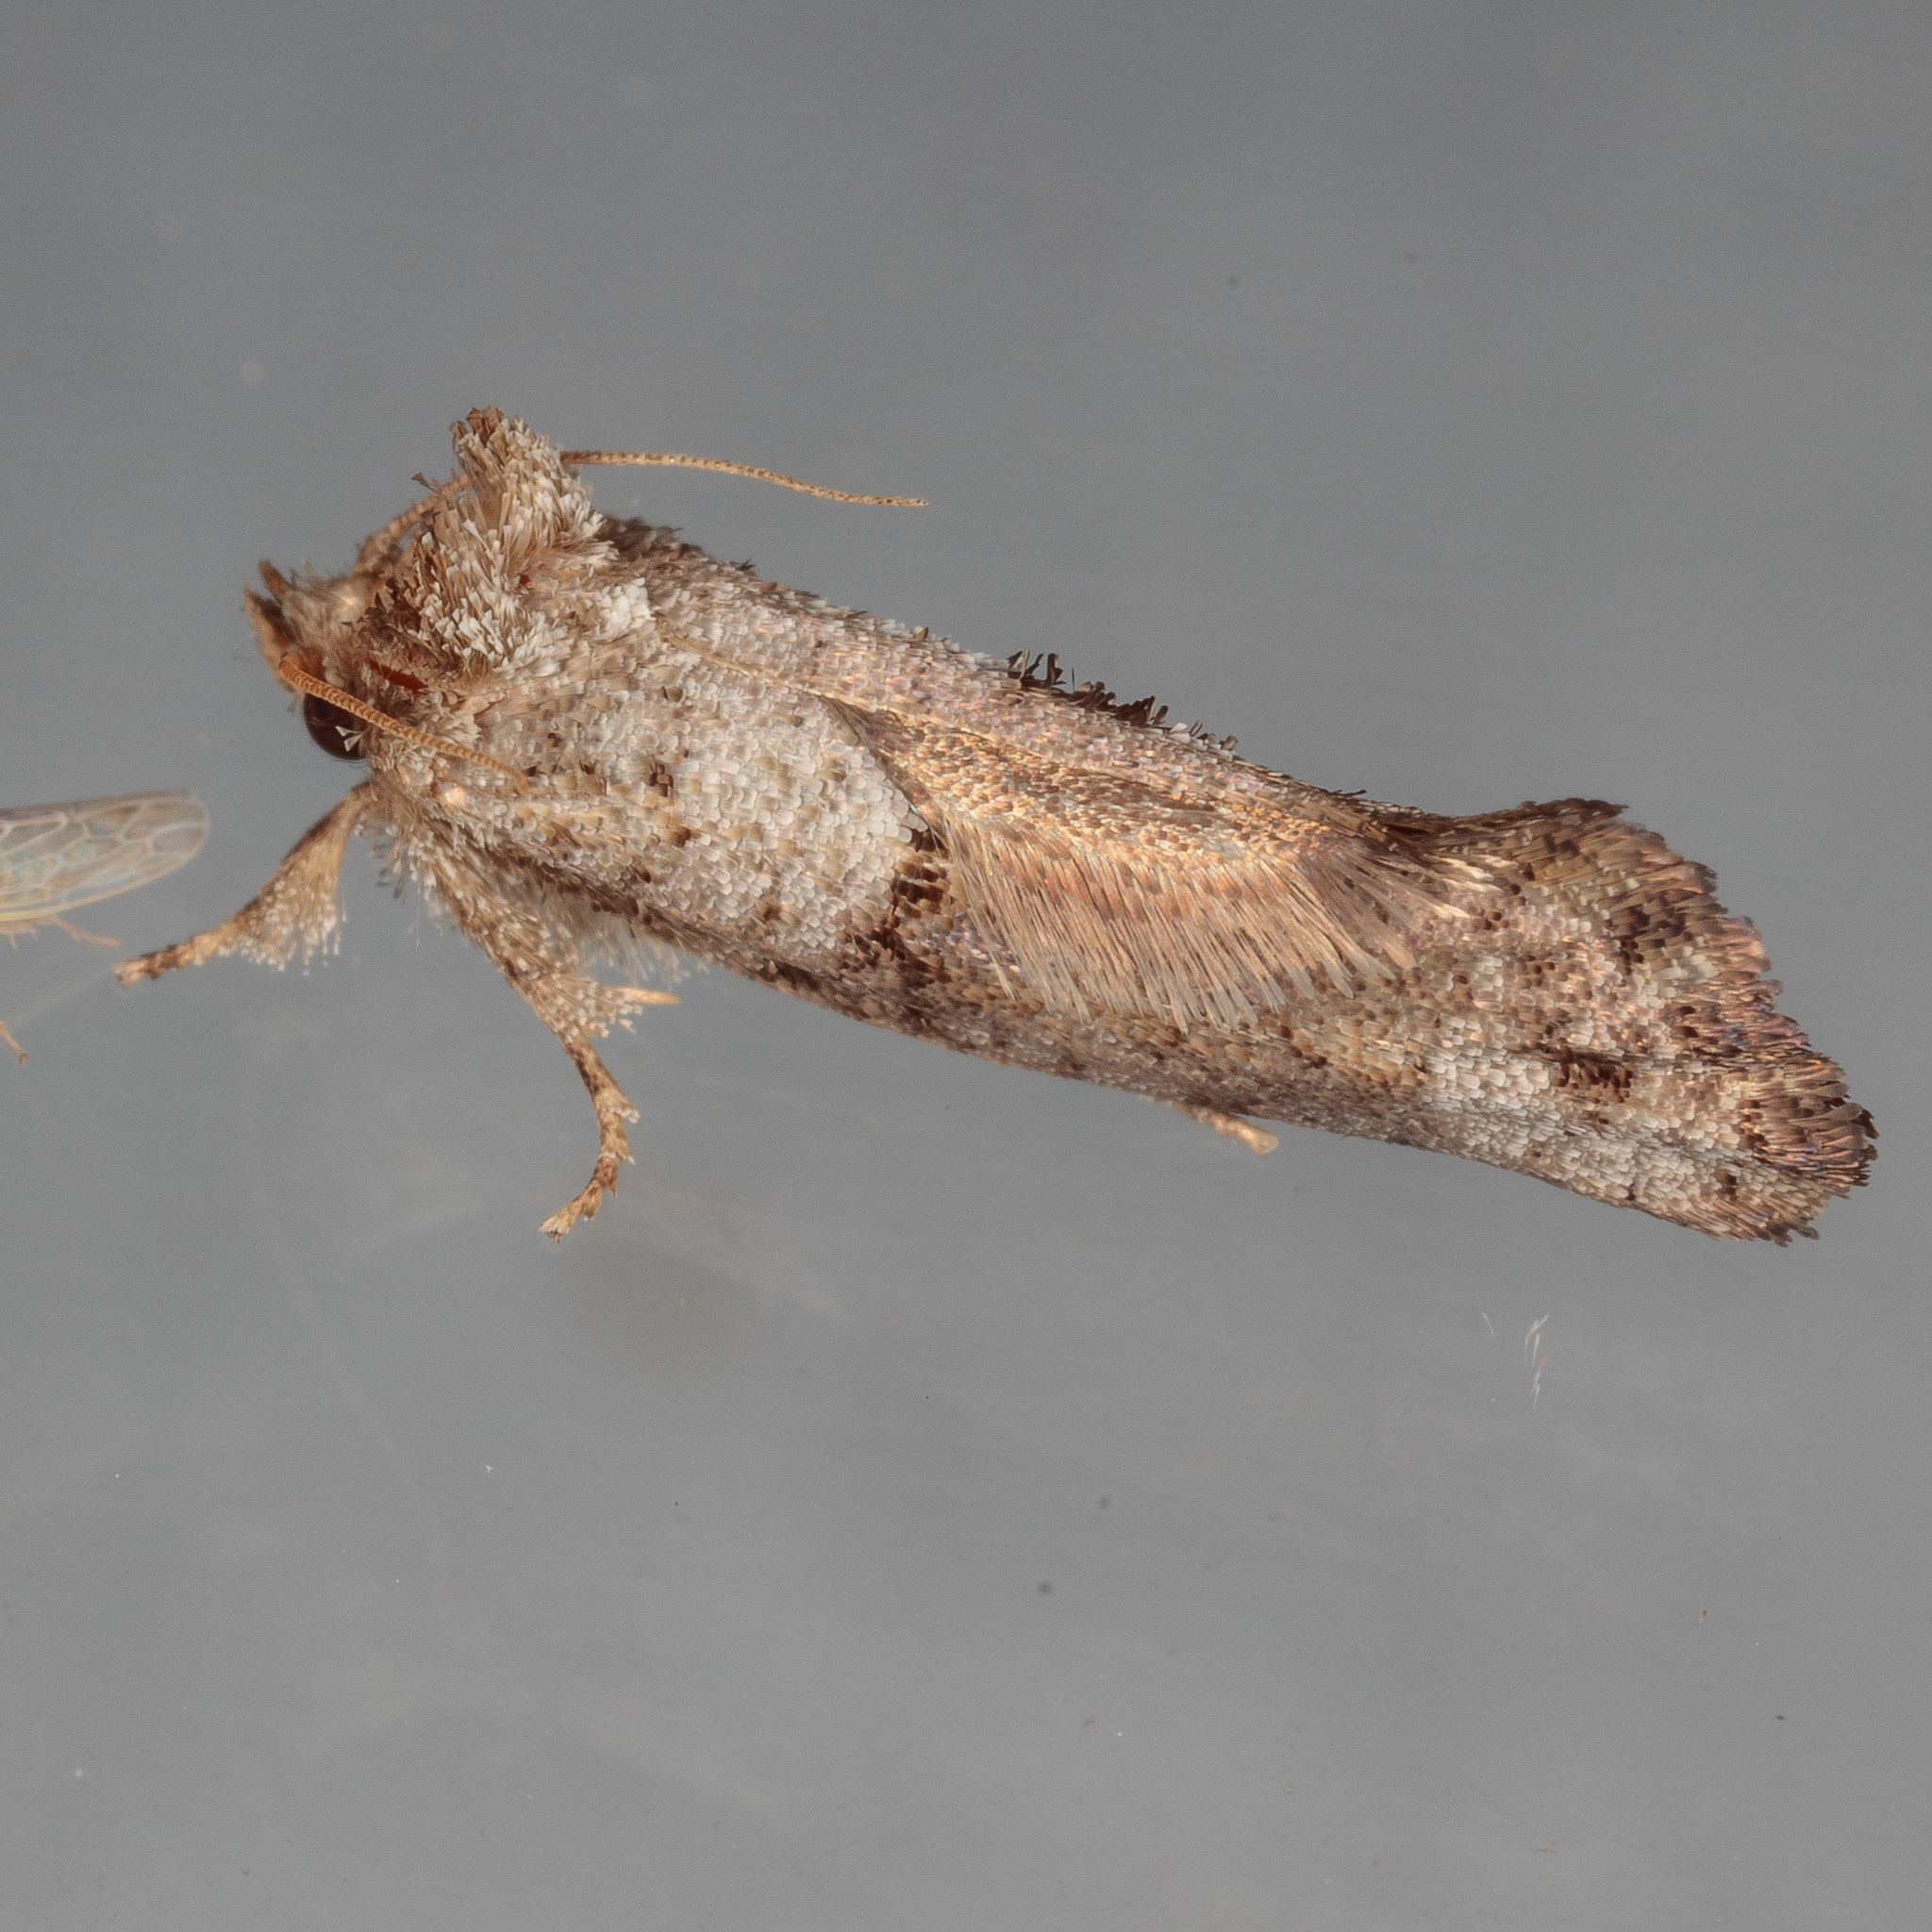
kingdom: Animalia
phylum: Arthropoda
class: Insecta
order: Lepidoptera
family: Tineidae
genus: Acrolophus
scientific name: Acrolophus piger
